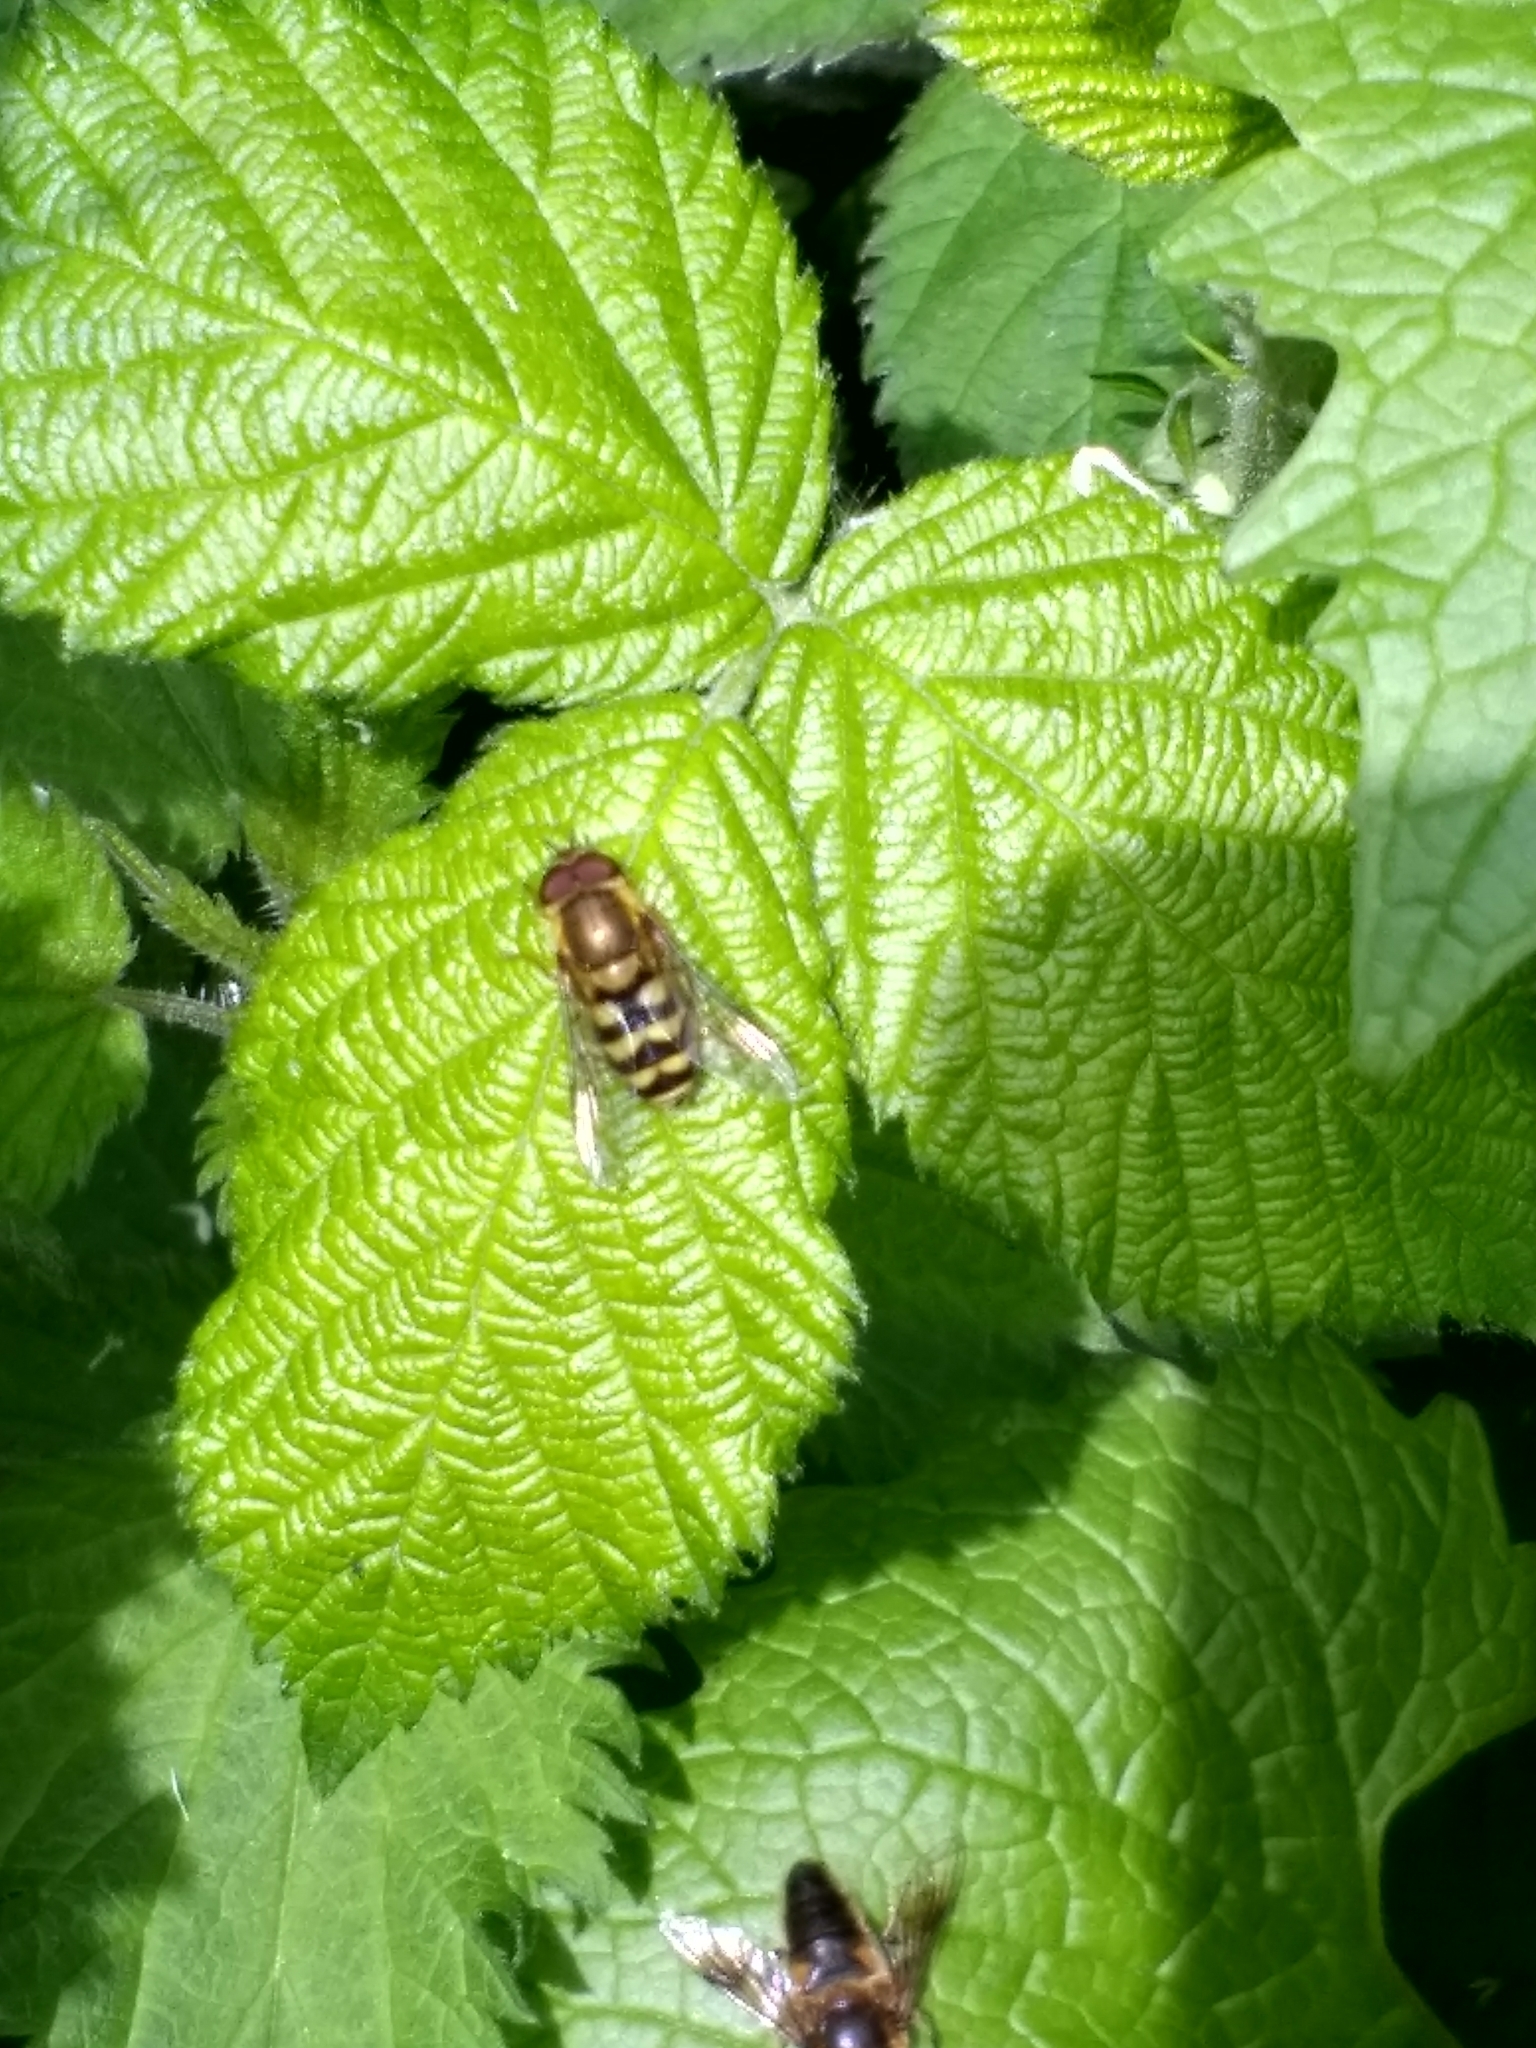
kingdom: Animalia
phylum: Arthropoda
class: Insecta
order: Diptera
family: Syrphidae
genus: Syrphus
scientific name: Syrphus
